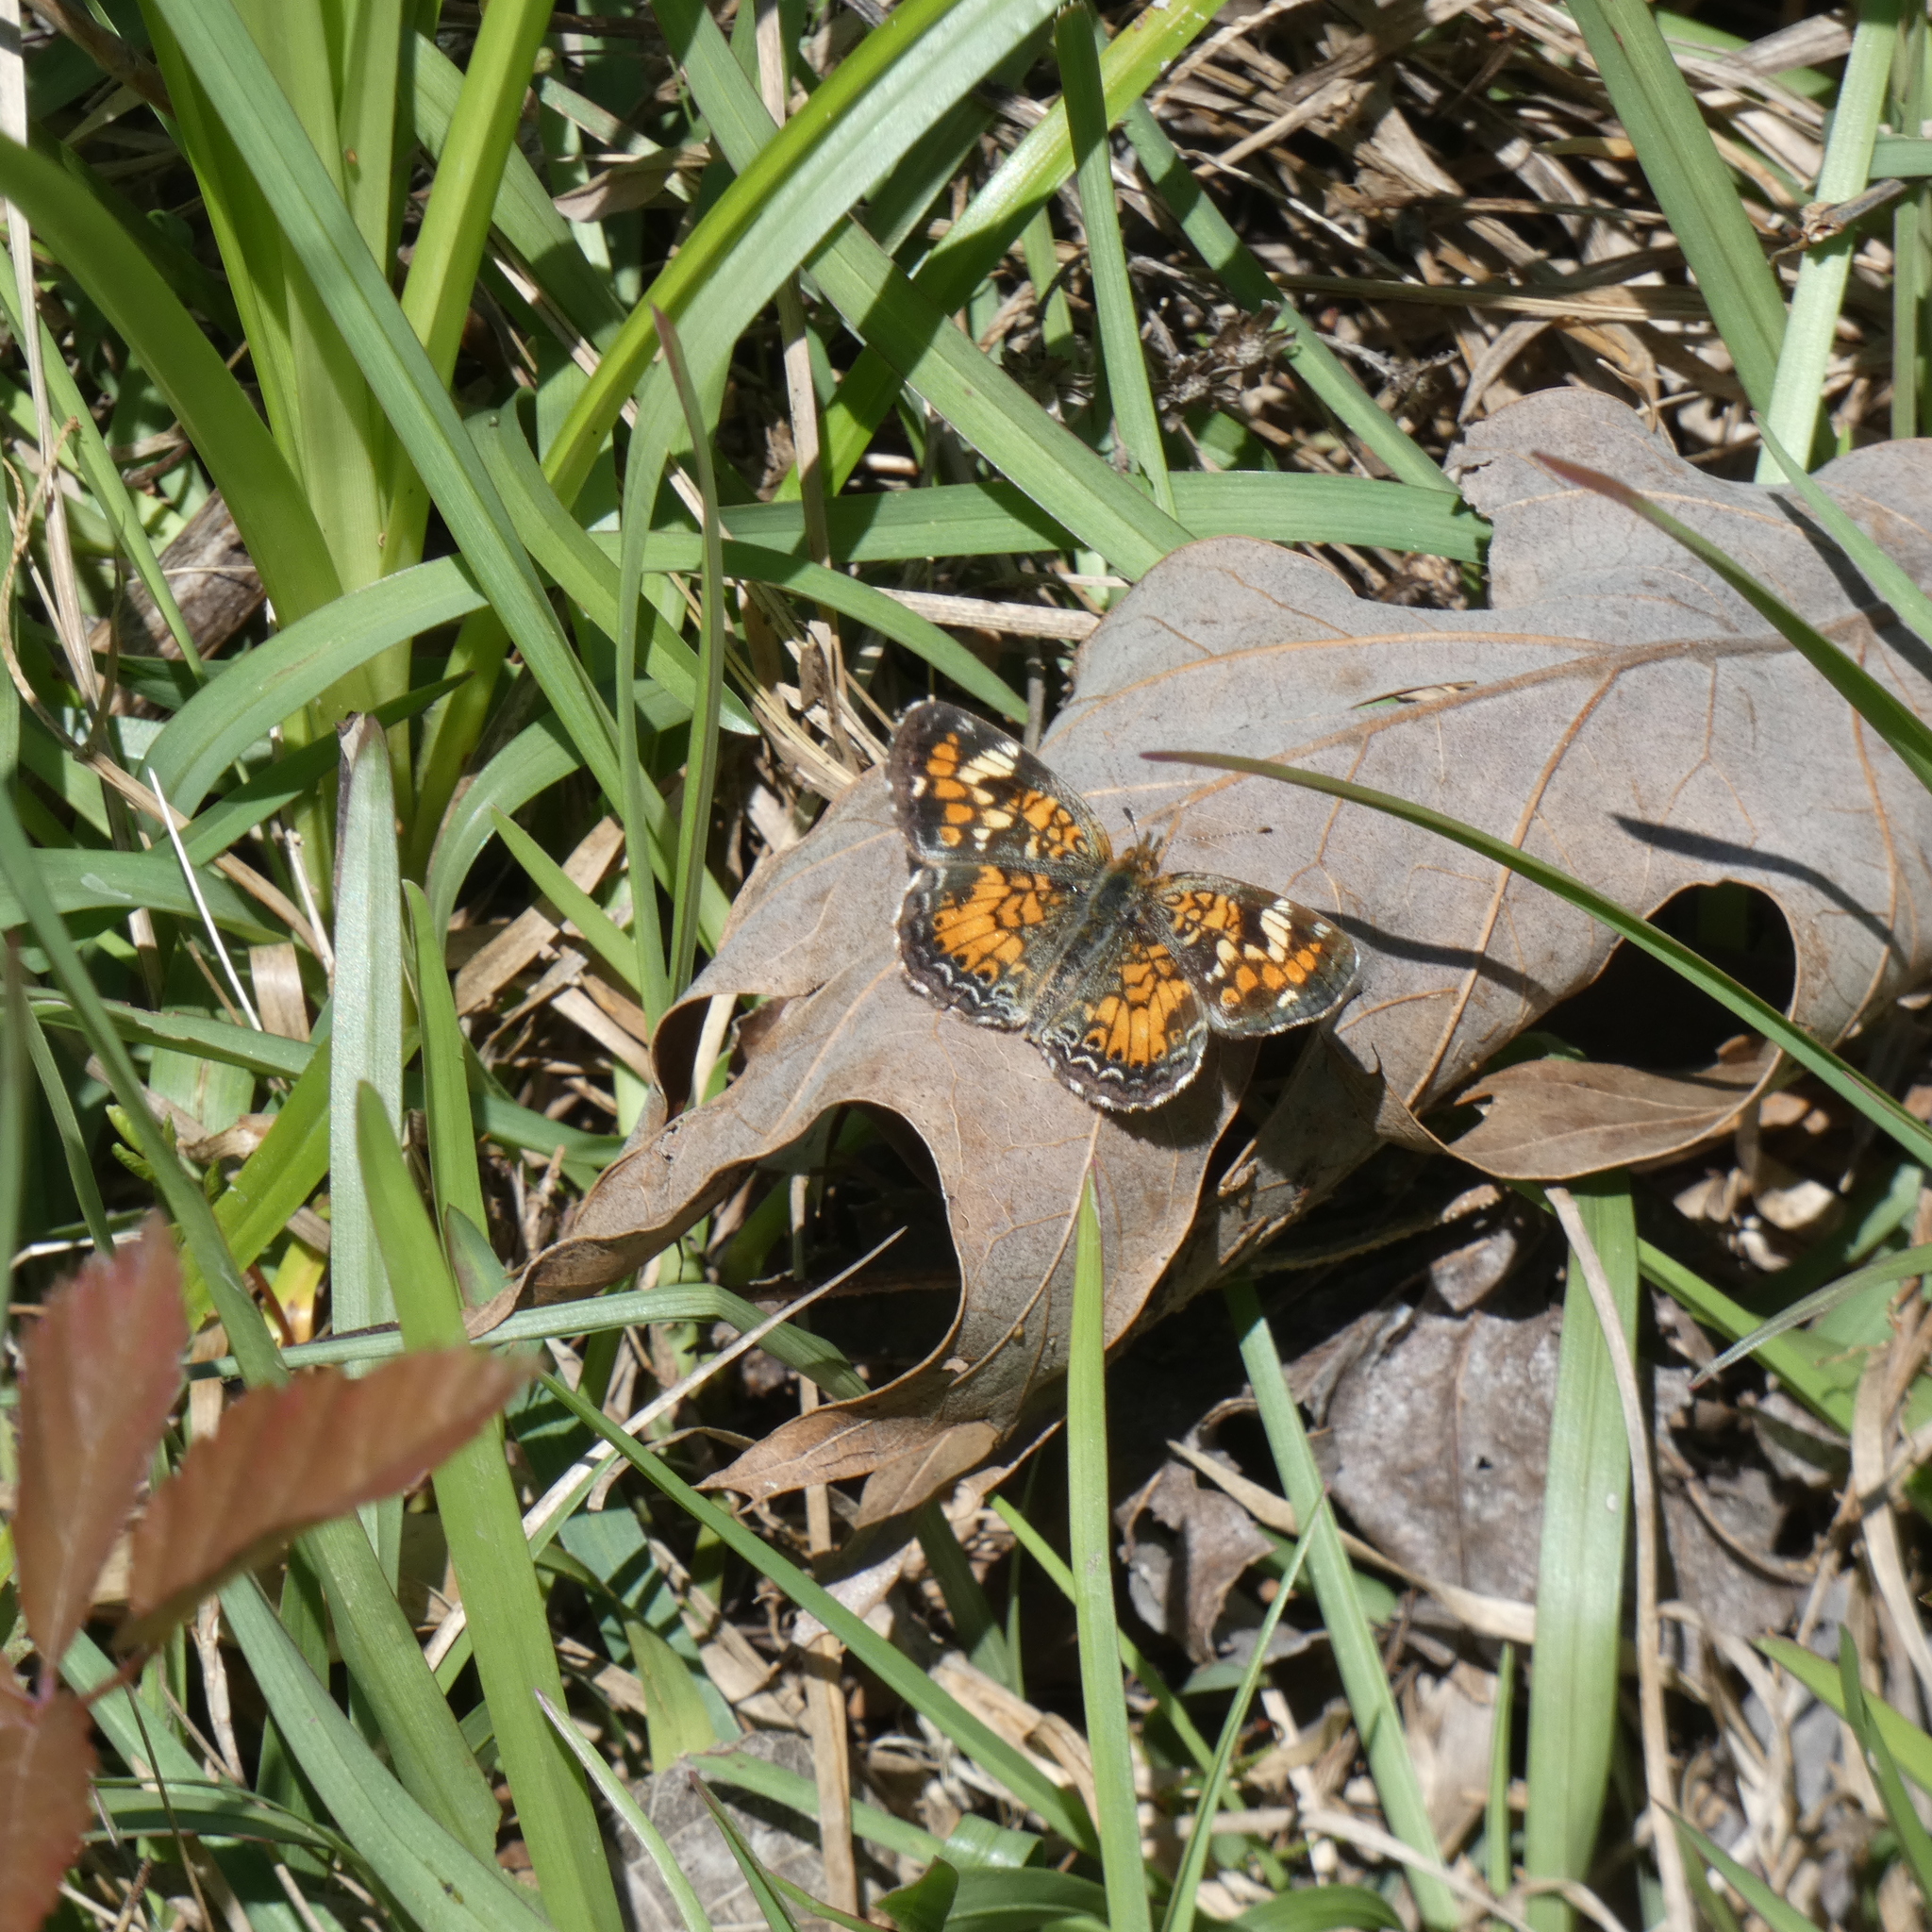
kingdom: Animalia
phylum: Arthropoda
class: Insecta
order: Lepidoptera
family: Nymphalidae
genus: Phyciodes
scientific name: Phyciodes phaon
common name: Phaon crescent
